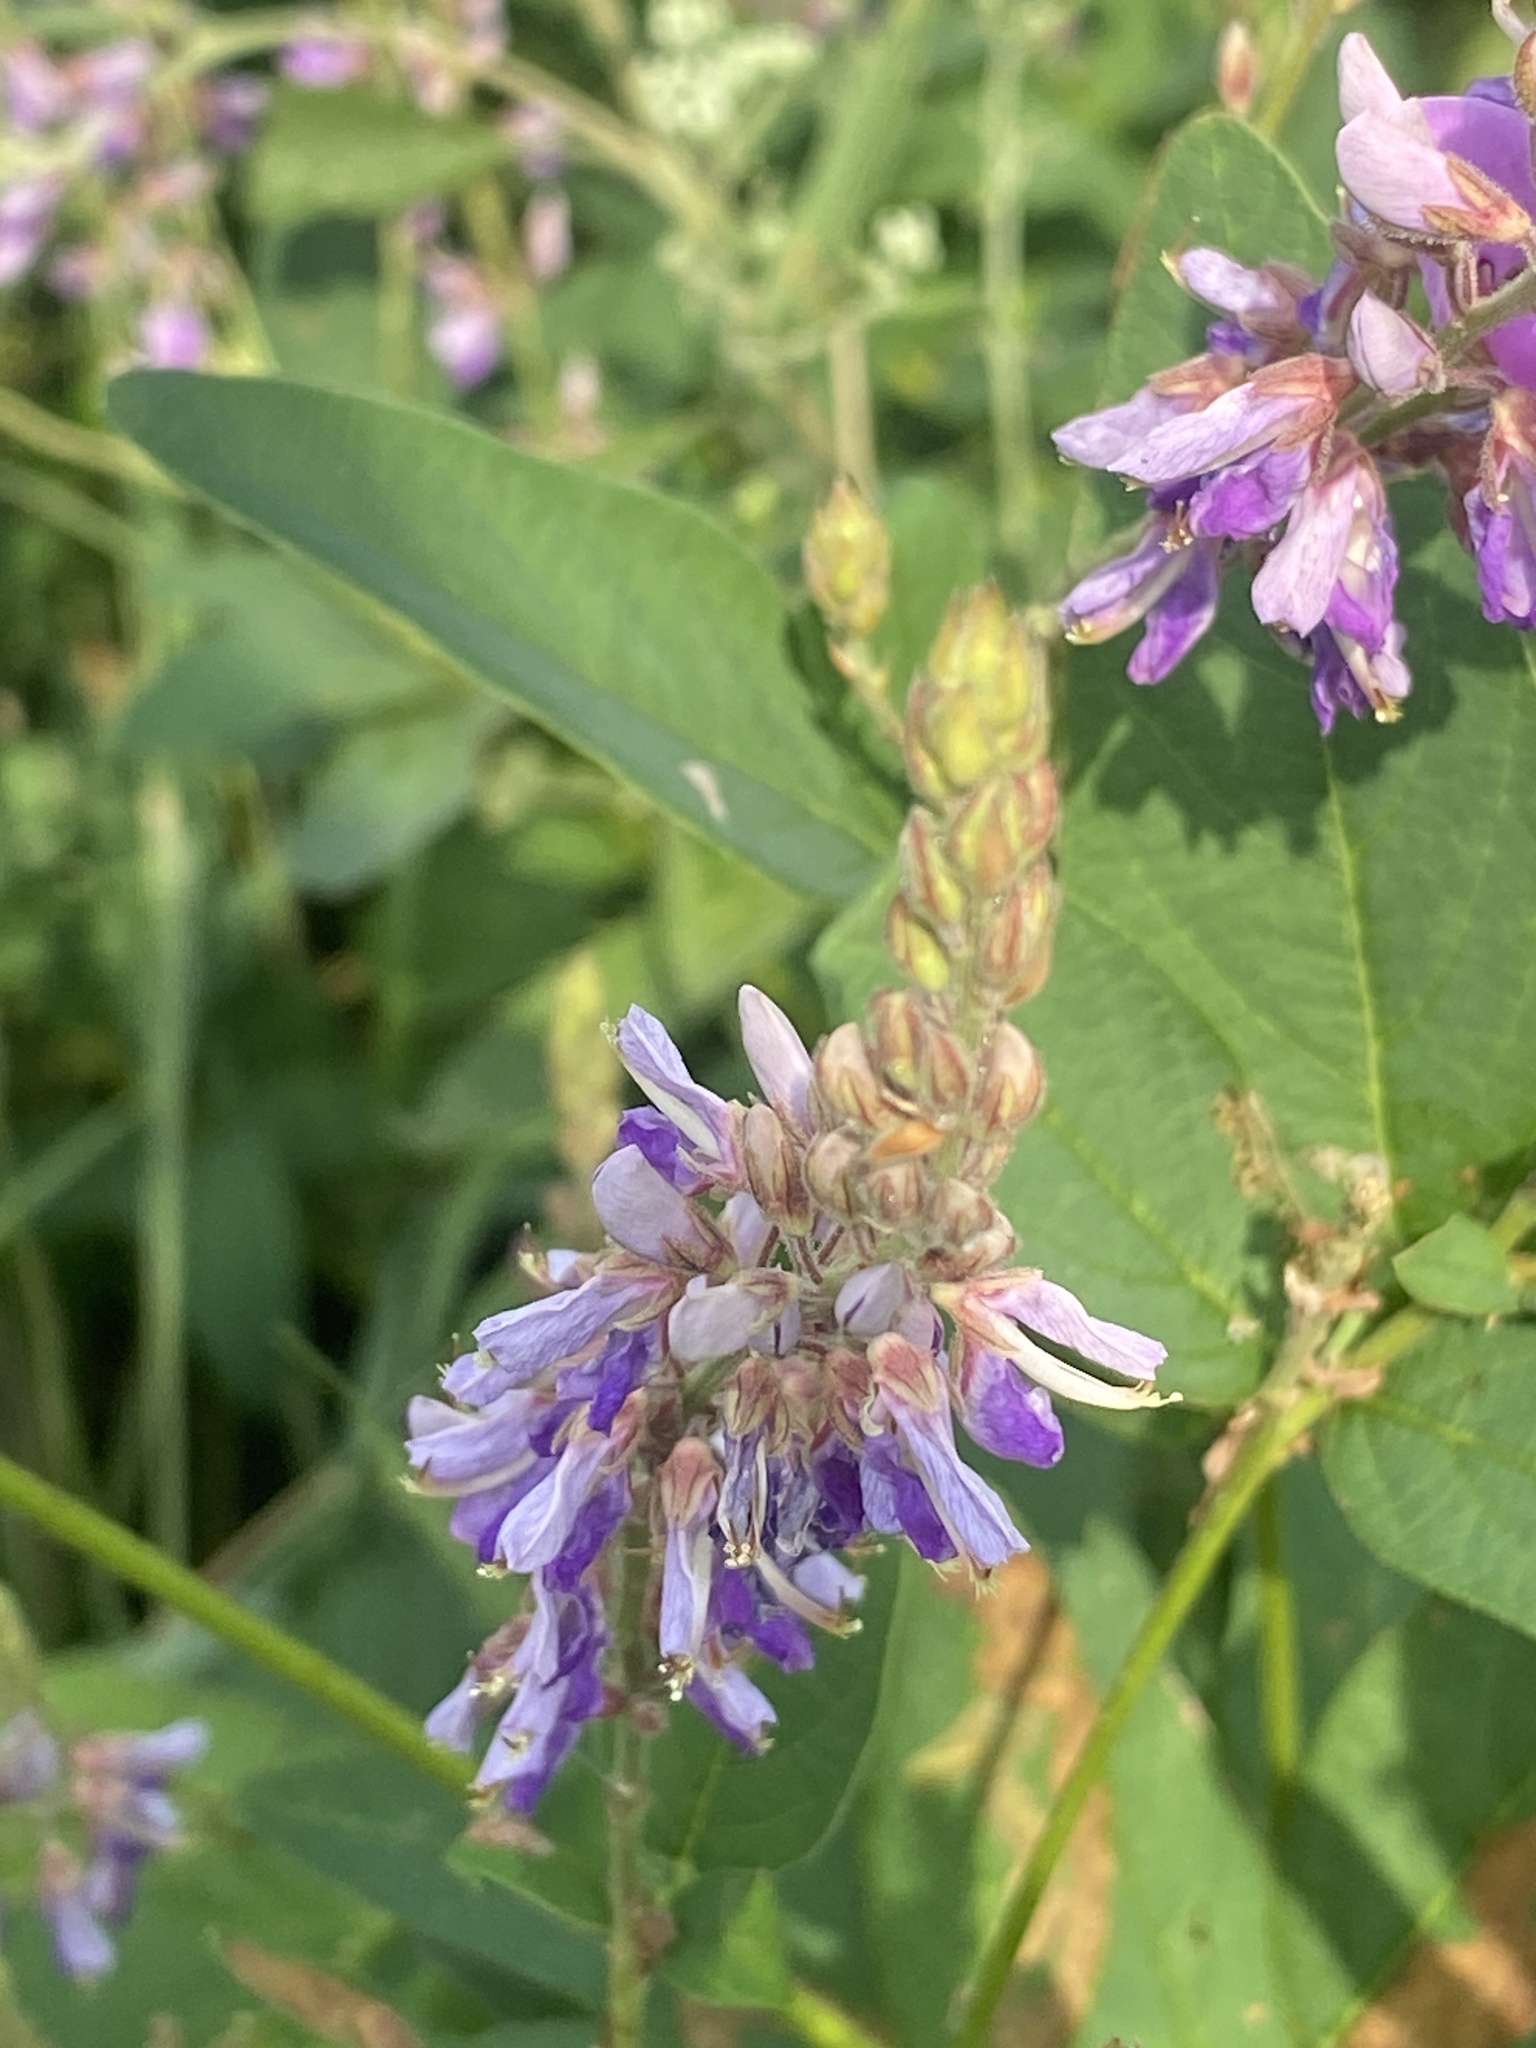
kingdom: Plantae
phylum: Tracheophyta
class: Magnoliopsida
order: Fabales
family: Fabaceae
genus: Desmodium
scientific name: Desmodium canadense
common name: Canada tick-trefoil
